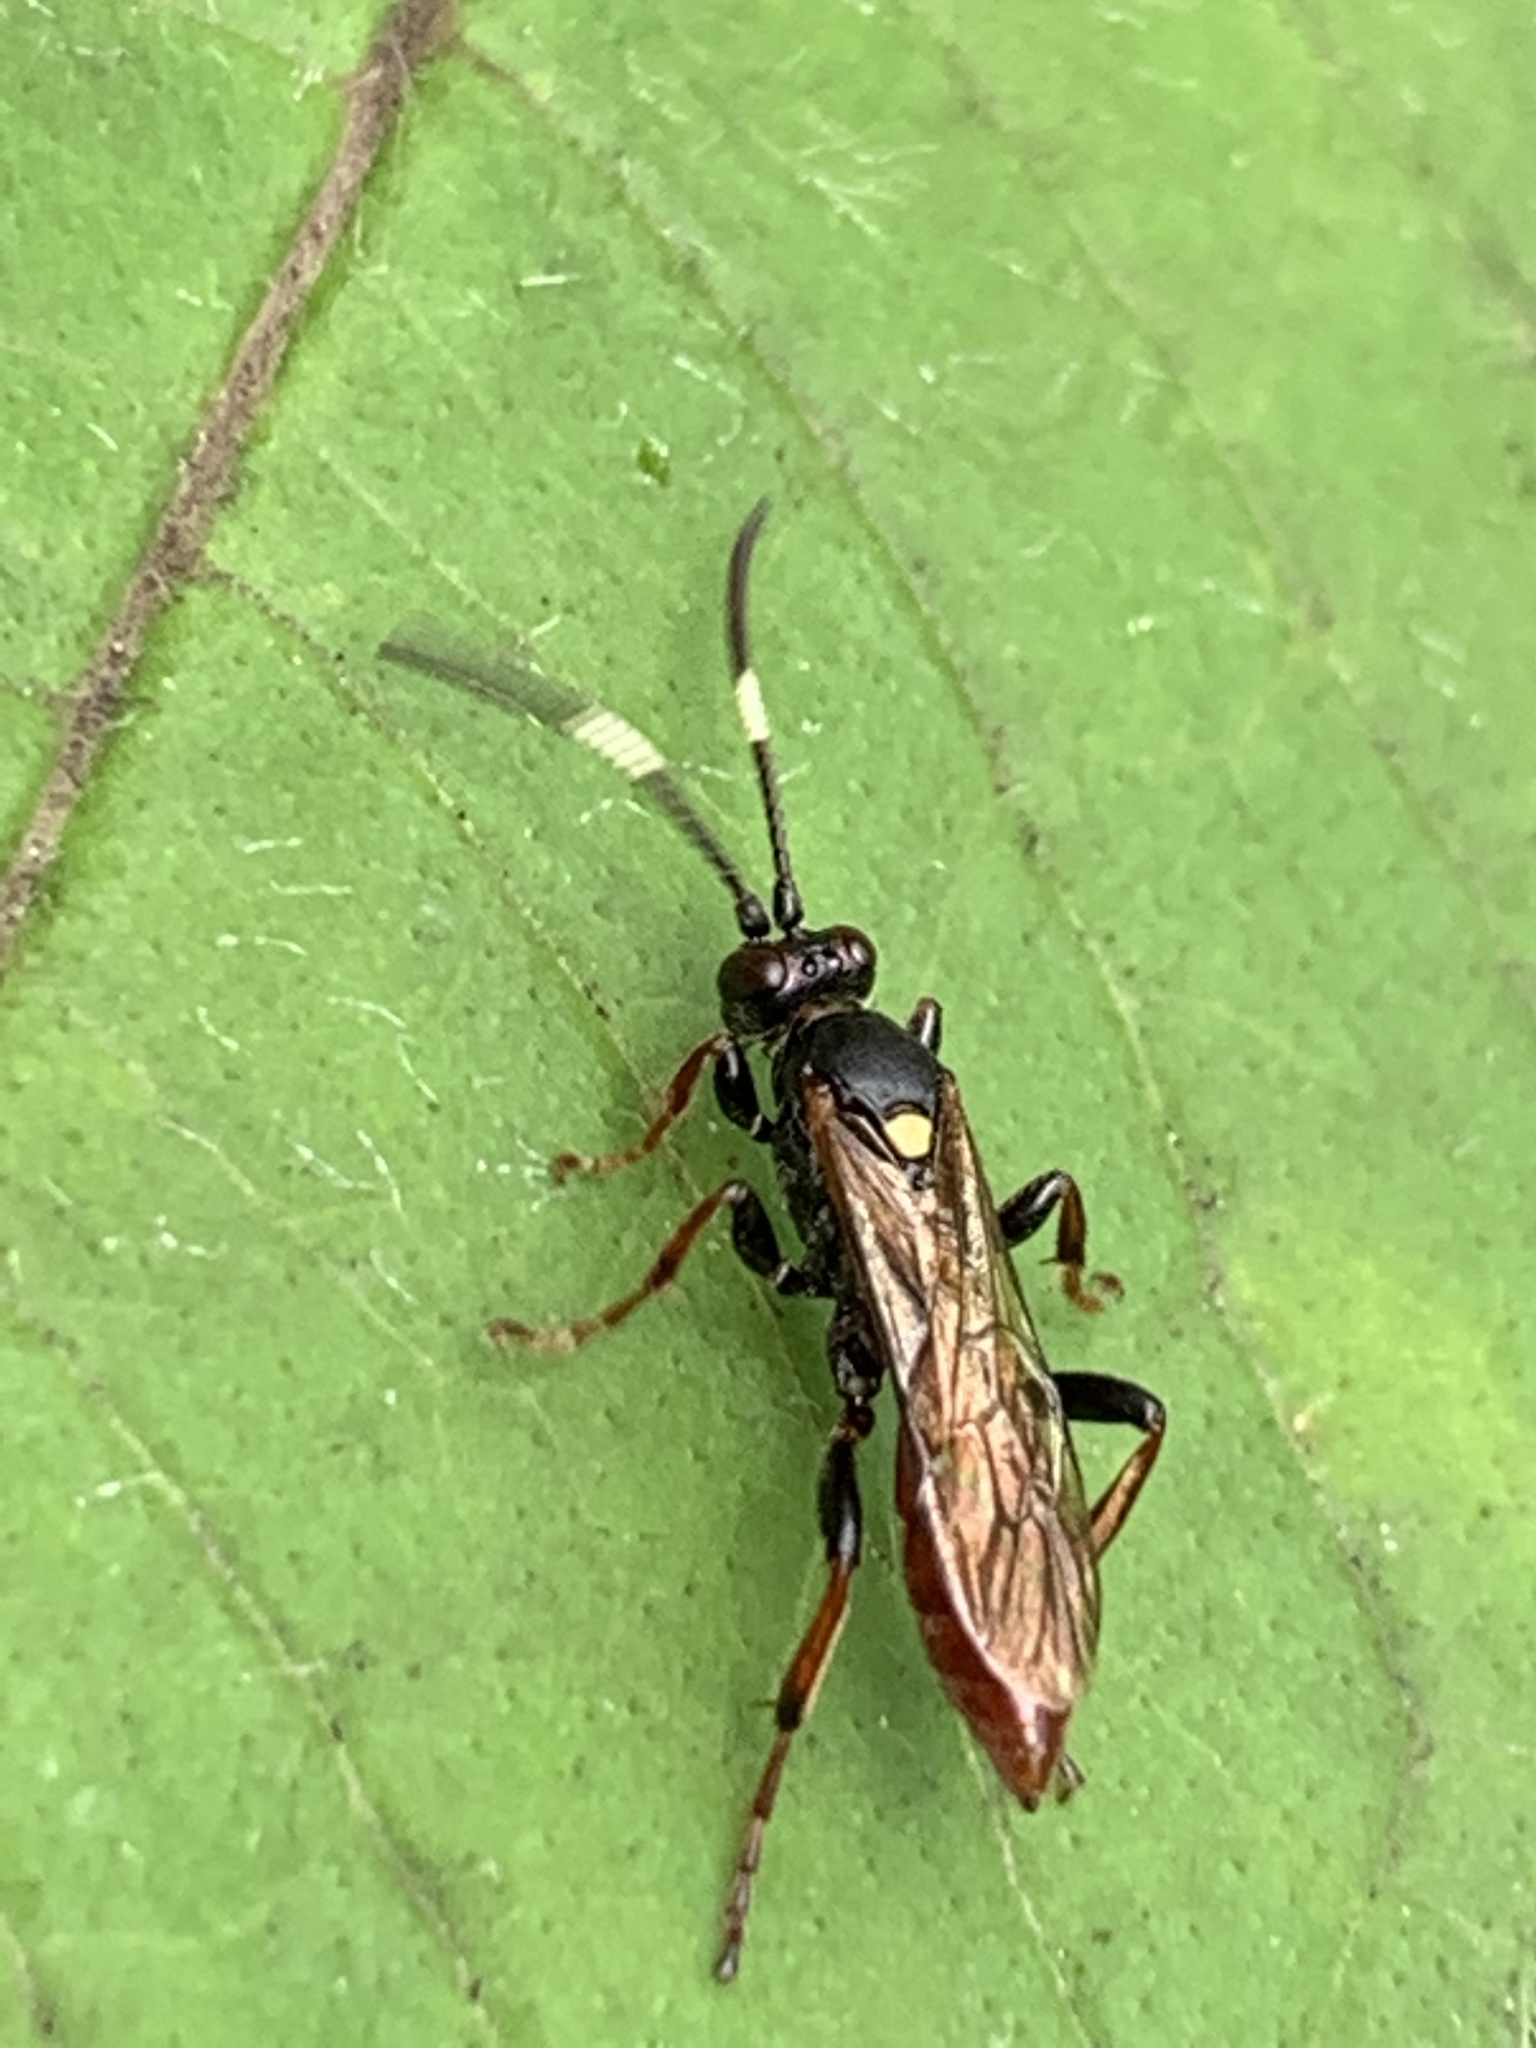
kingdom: Animalia
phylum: Arthropoda
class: Insecta
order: Hymenoptera
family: Ichneumonidae
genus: Ichneumon
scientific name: Ichneumon annulatorius
